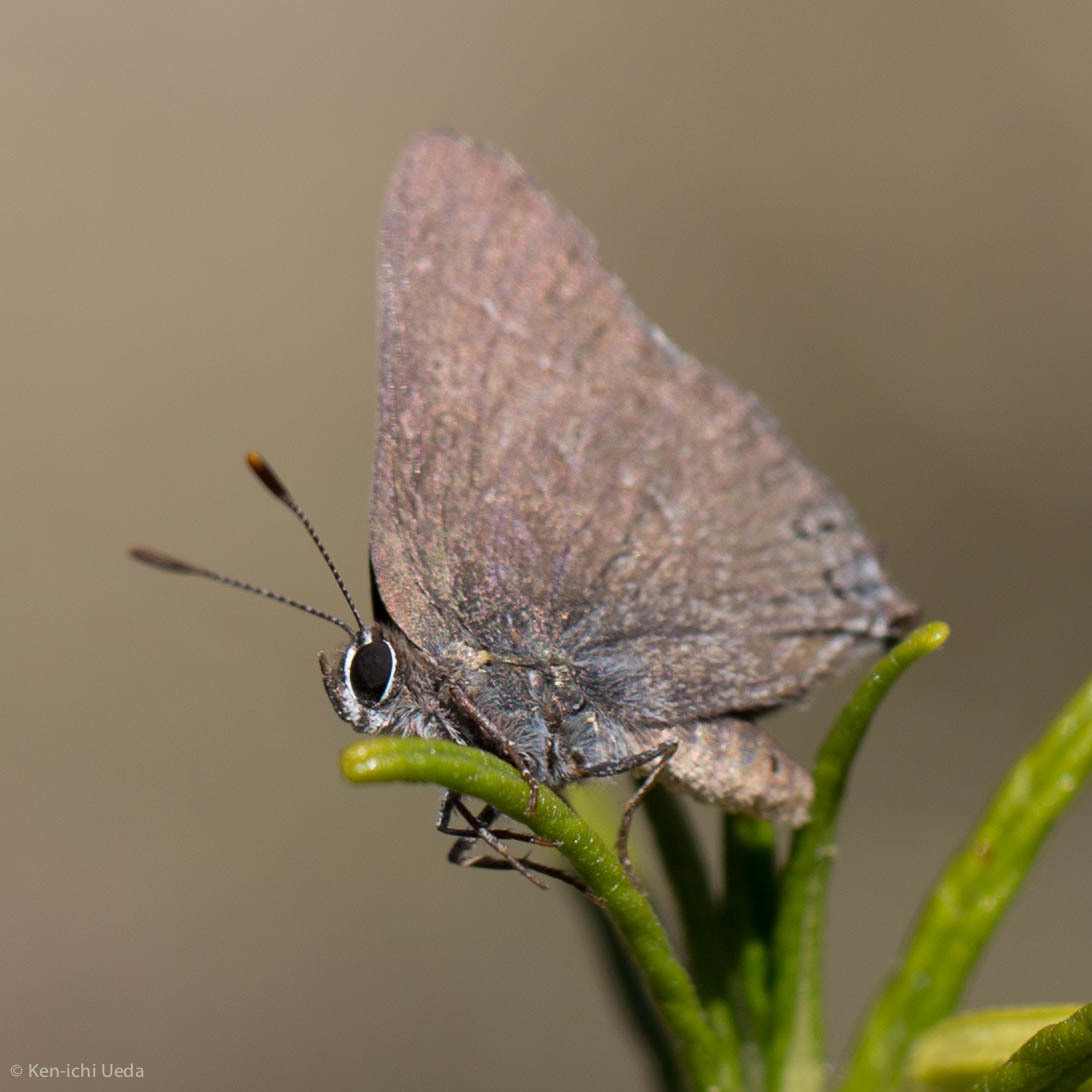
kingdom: Animalia
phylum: Arthropoda
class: Insecta
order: Lepidoptera
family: Lycaenidae
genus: Thecla
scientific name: Thecla tetra
